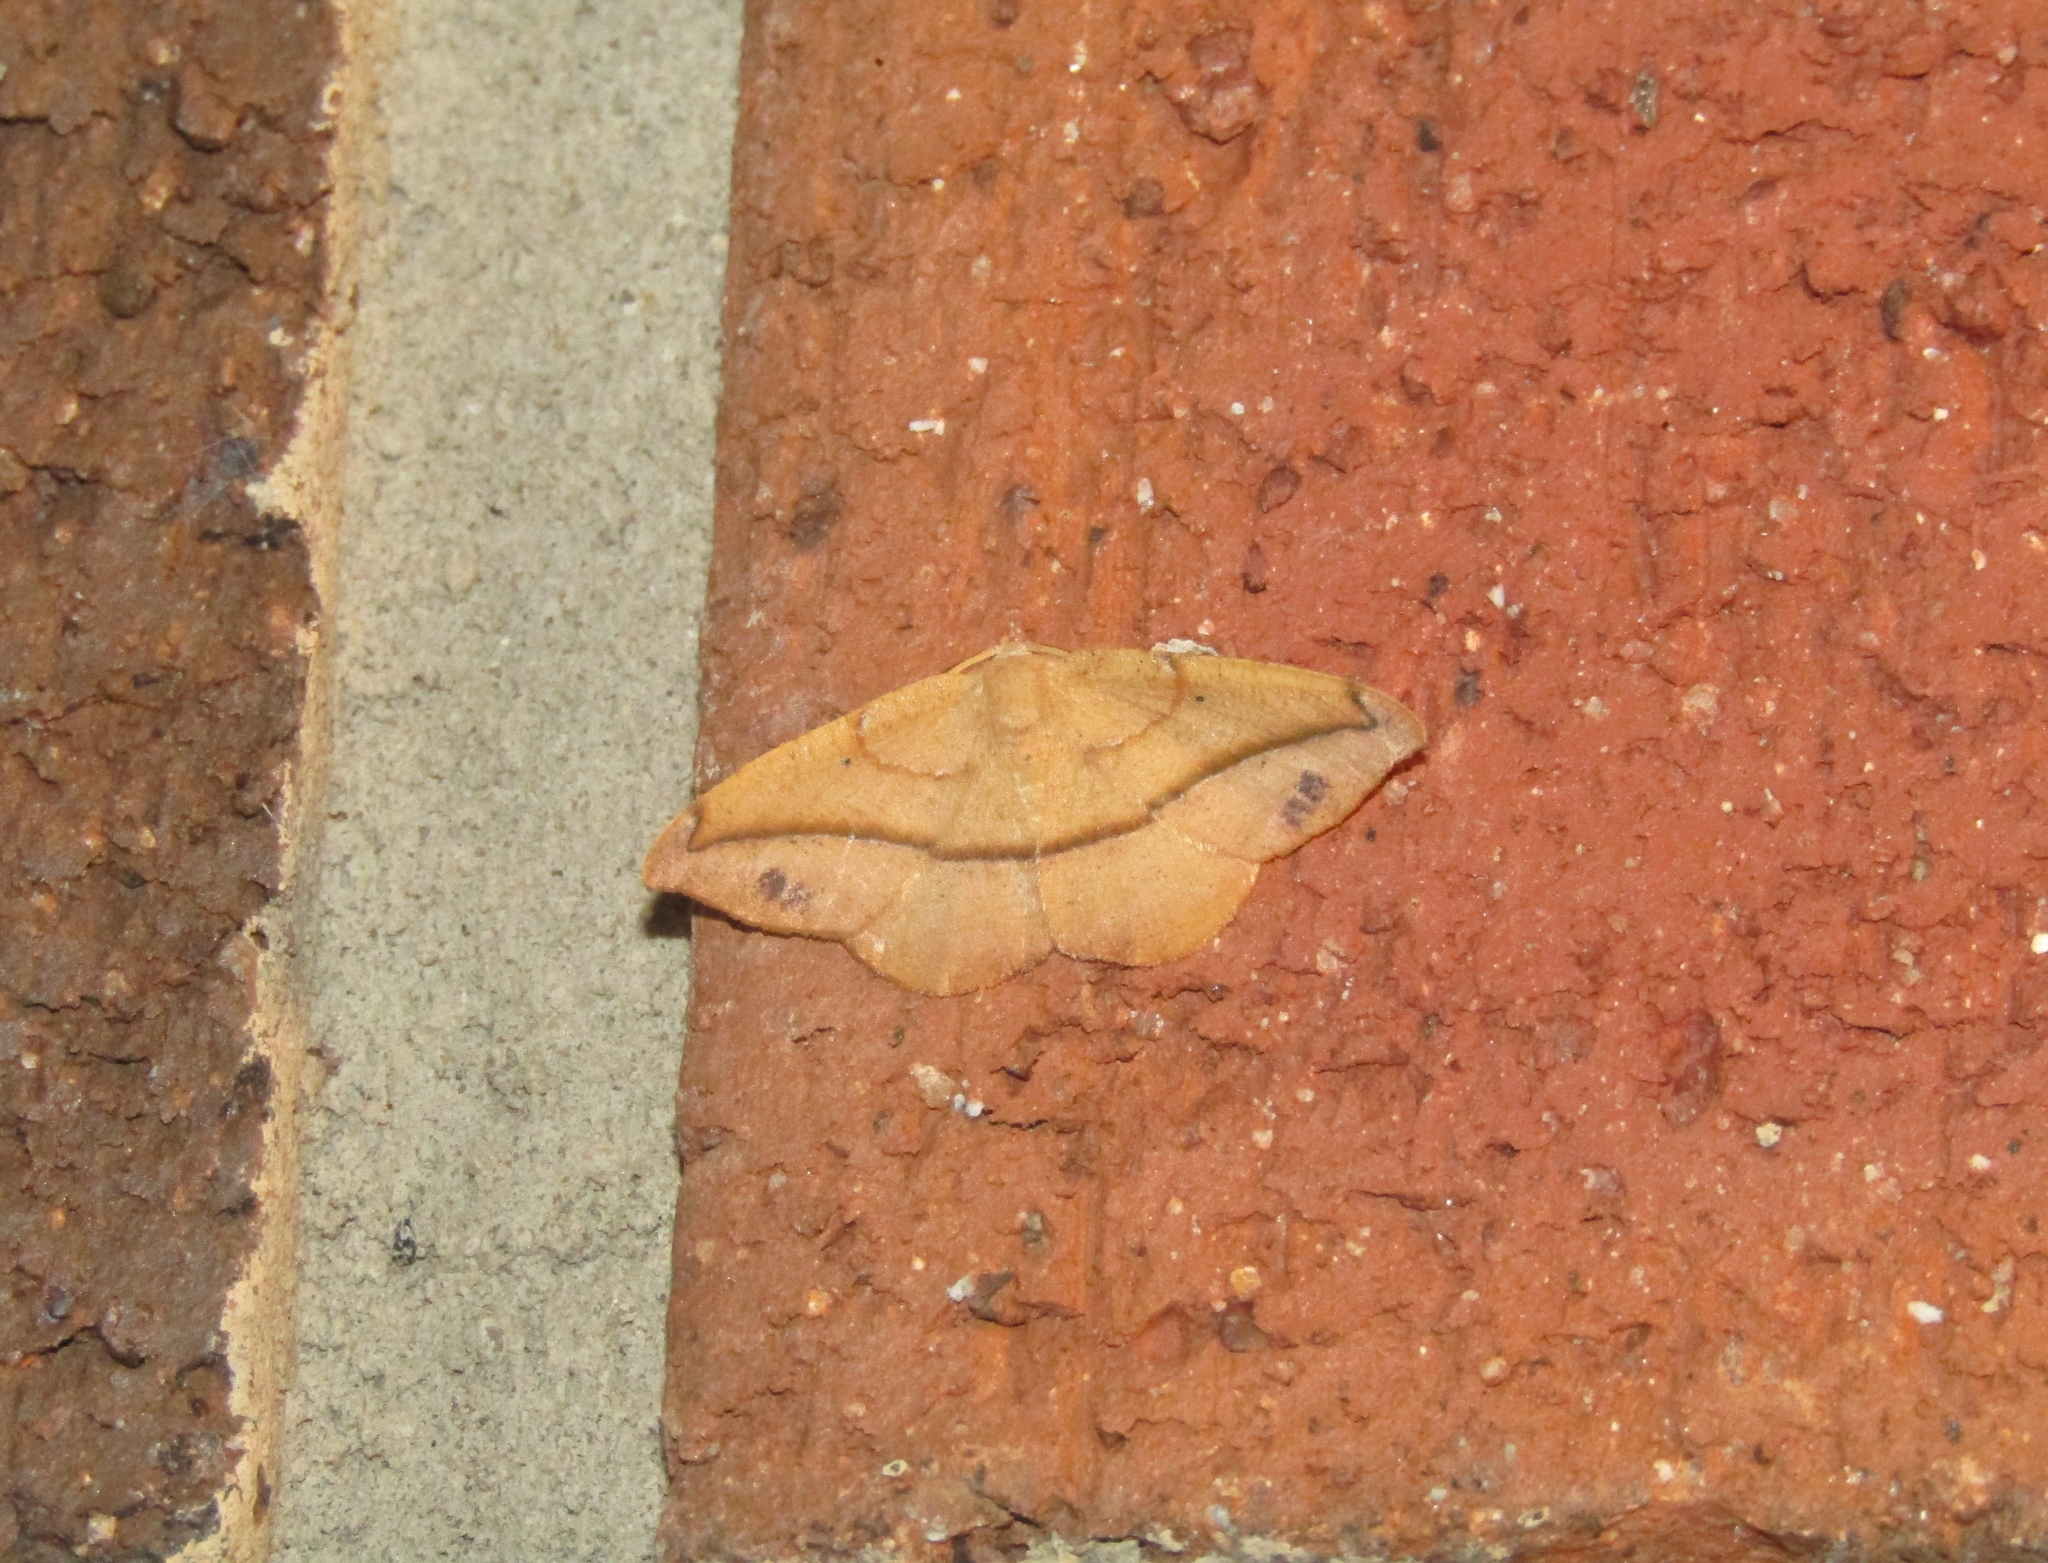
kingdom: Animalia
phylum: Arthropoda
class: Insecta
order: Lepidoptera
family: Geometridae
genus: Patalene
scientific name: Patalene olyzonaria
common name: Juniper geometer moth
